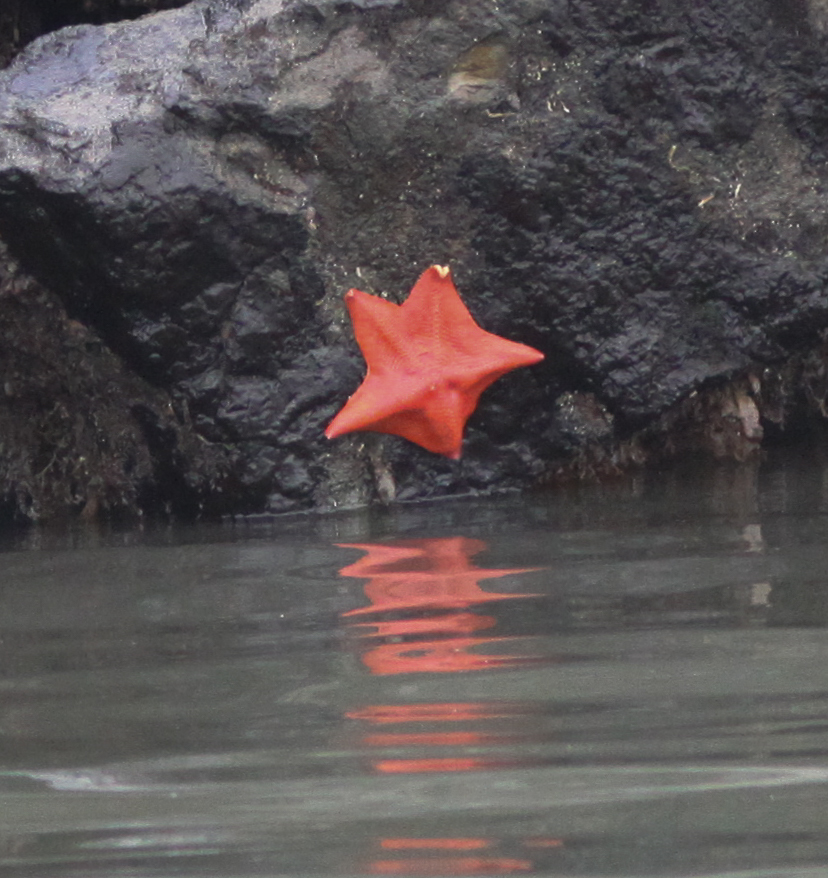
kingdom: Animalia
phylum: Echinodermata
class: Asteroidea
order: Valvatida
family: Asterinidae
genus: Patiria
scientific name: Patiria miniata
